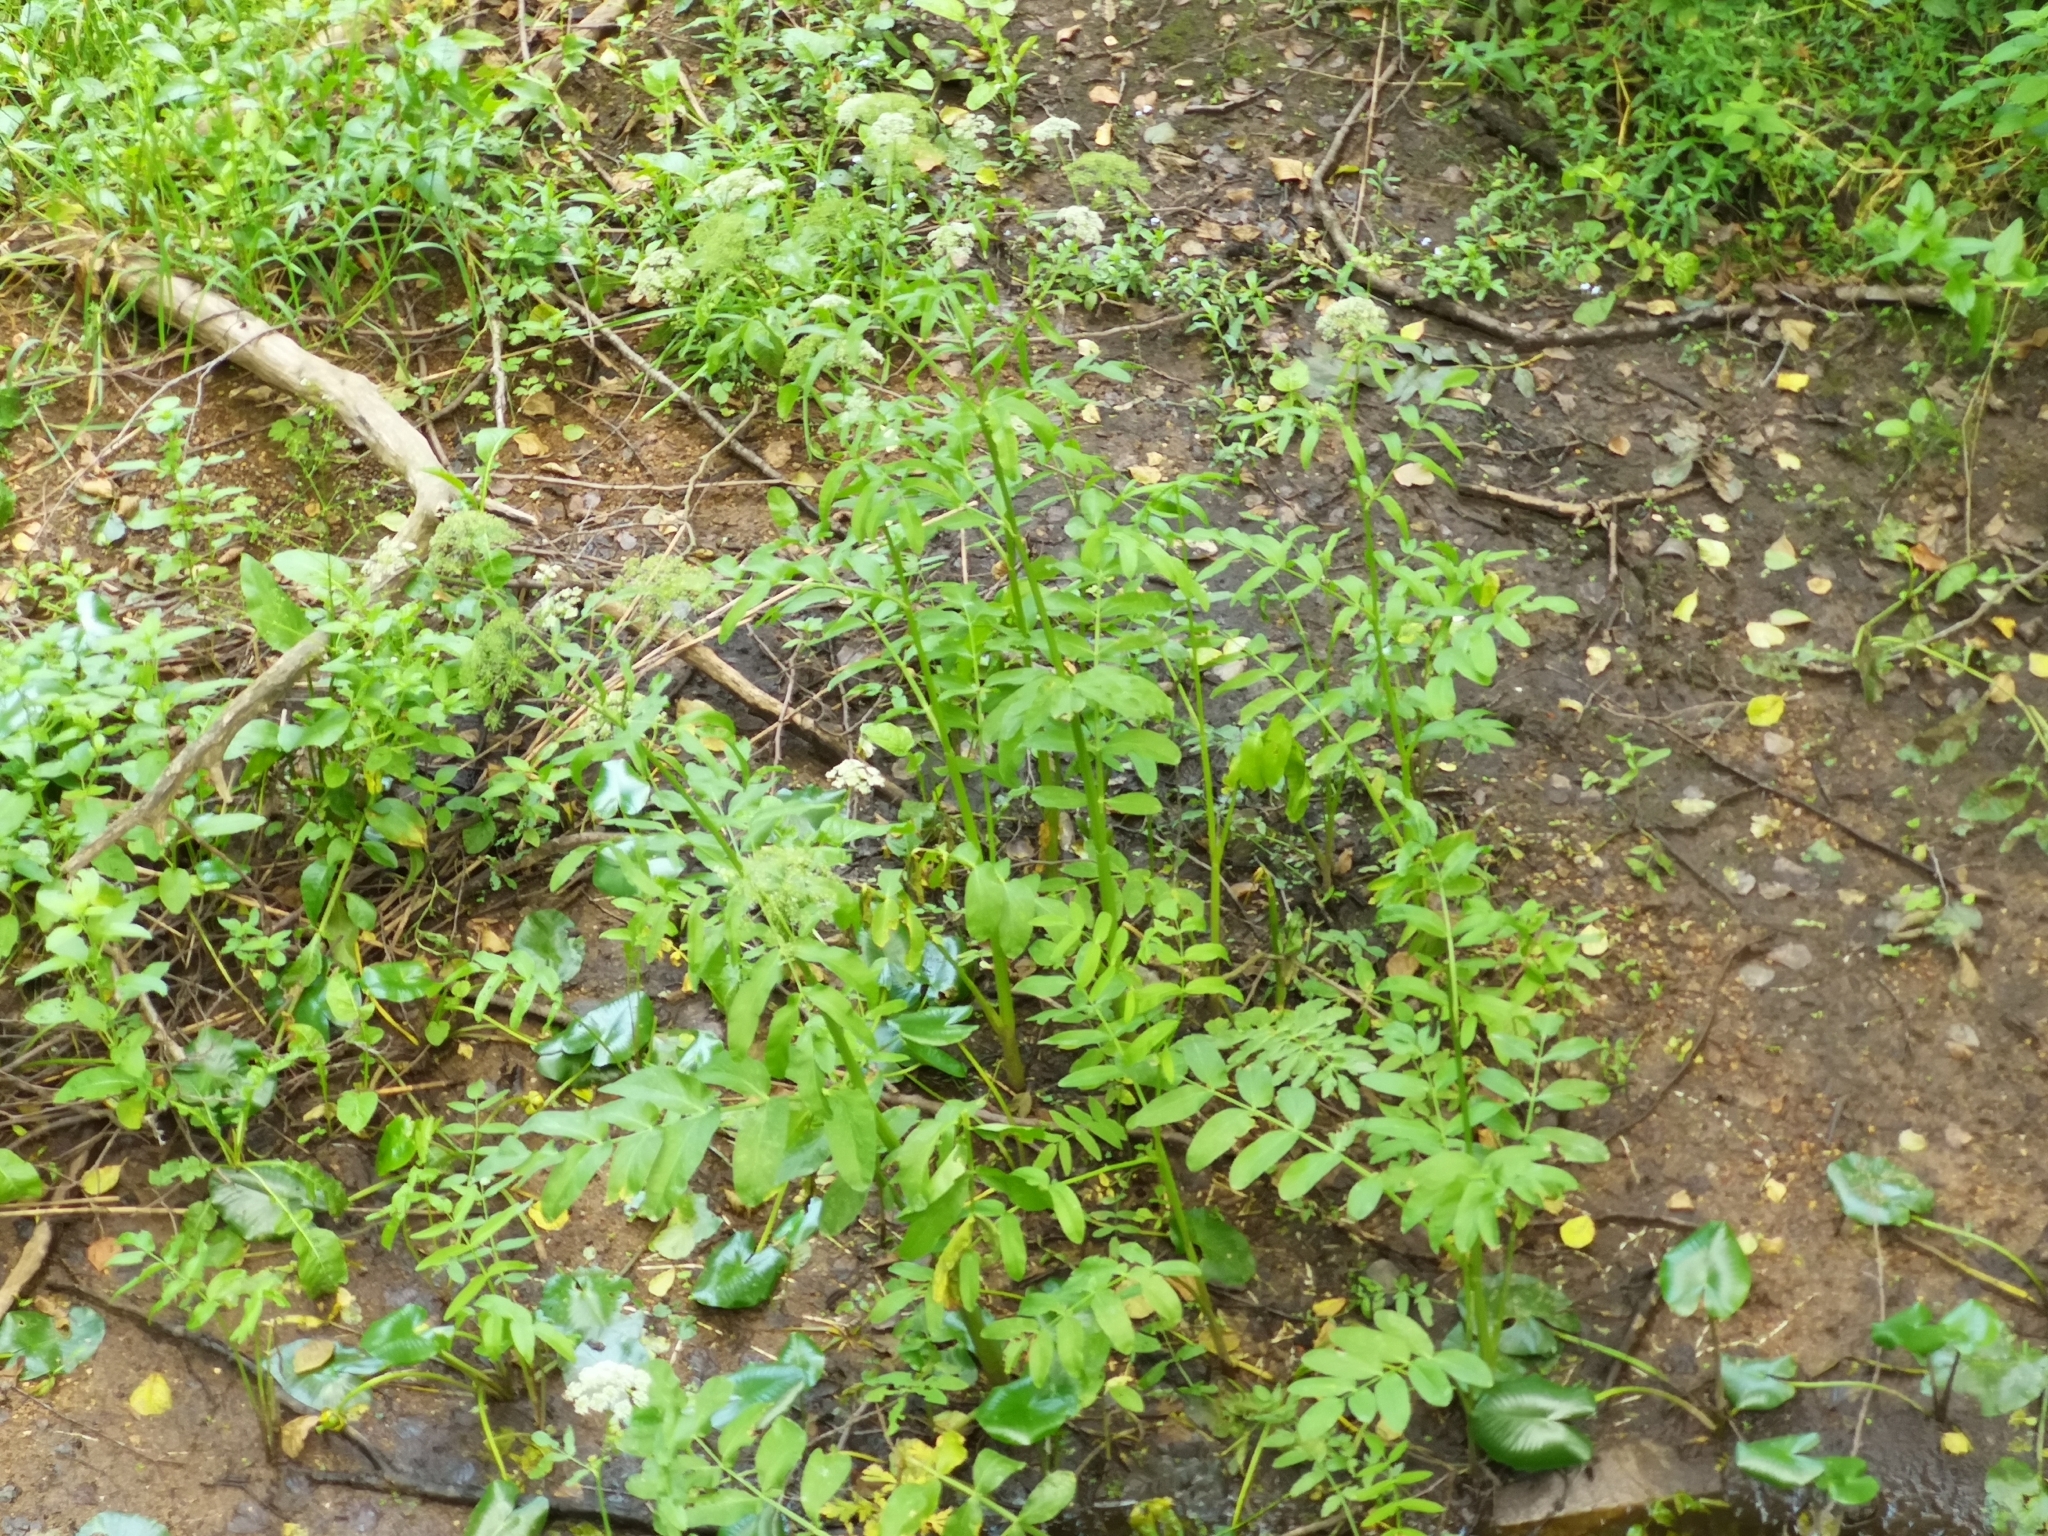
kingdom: Plantae
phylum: Tracheophyta
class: Magnoliopsida
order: Apiales
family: Apiaceae
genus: Sium
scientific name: Sium latifolium
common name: Greater water-parsnip
